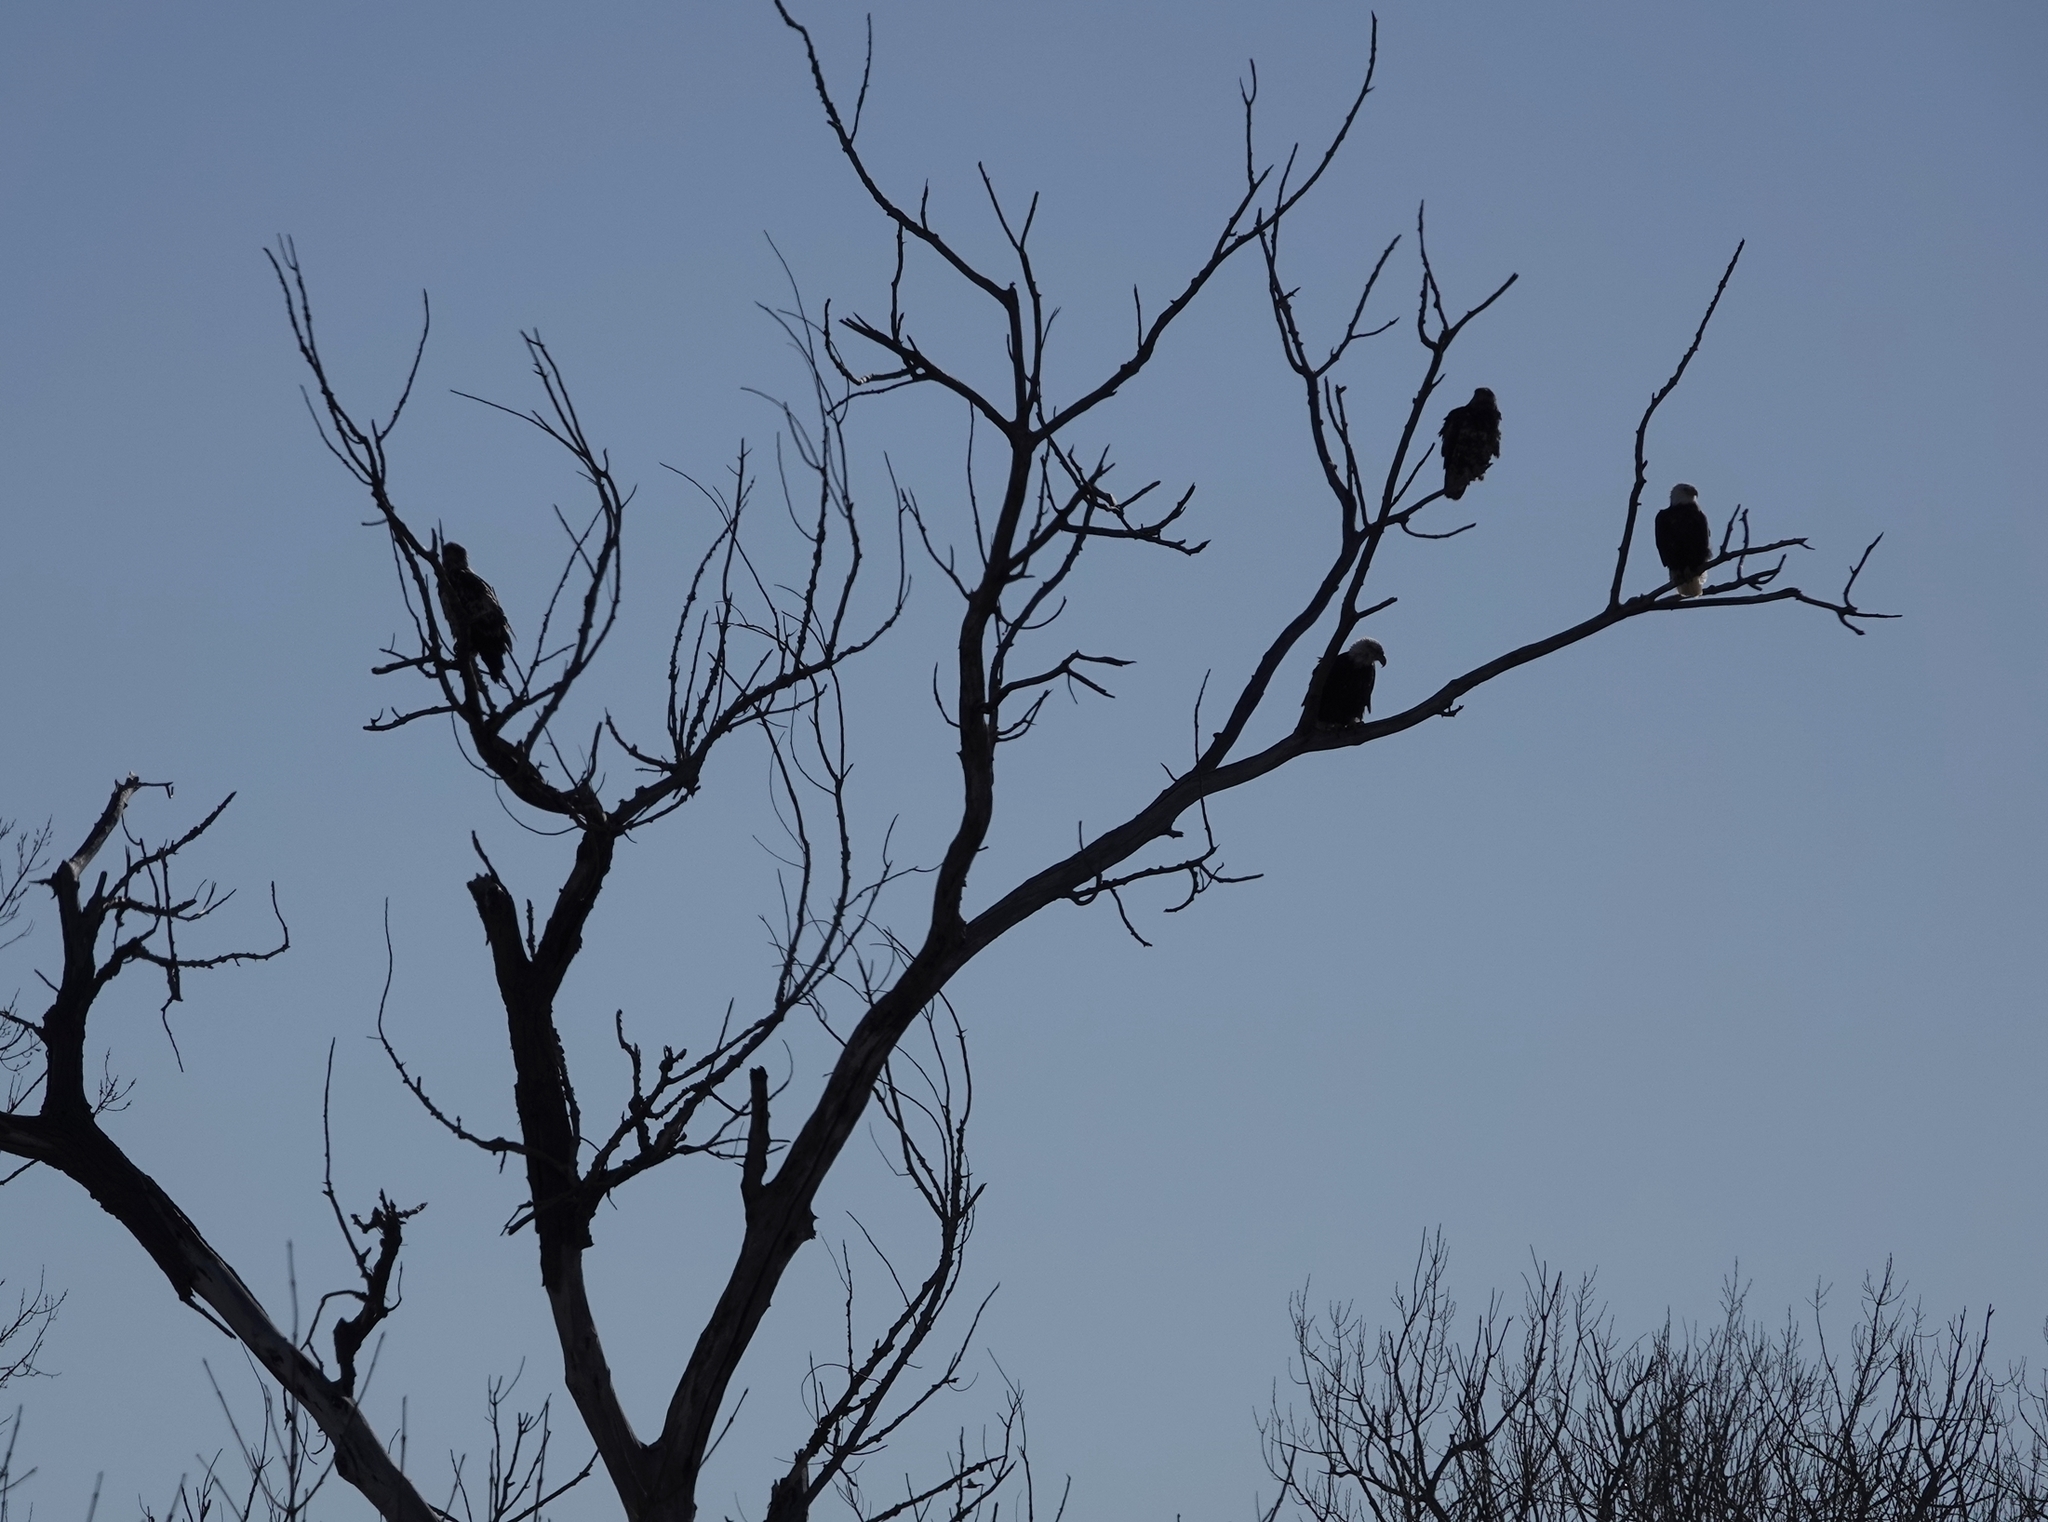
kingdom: Animalia
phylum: Chordata
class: Aves
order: Accipitriformes
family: Accipitridae
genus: Haliaeetus
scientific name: Haliaeetus leucocephalus
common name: Bald eagle
